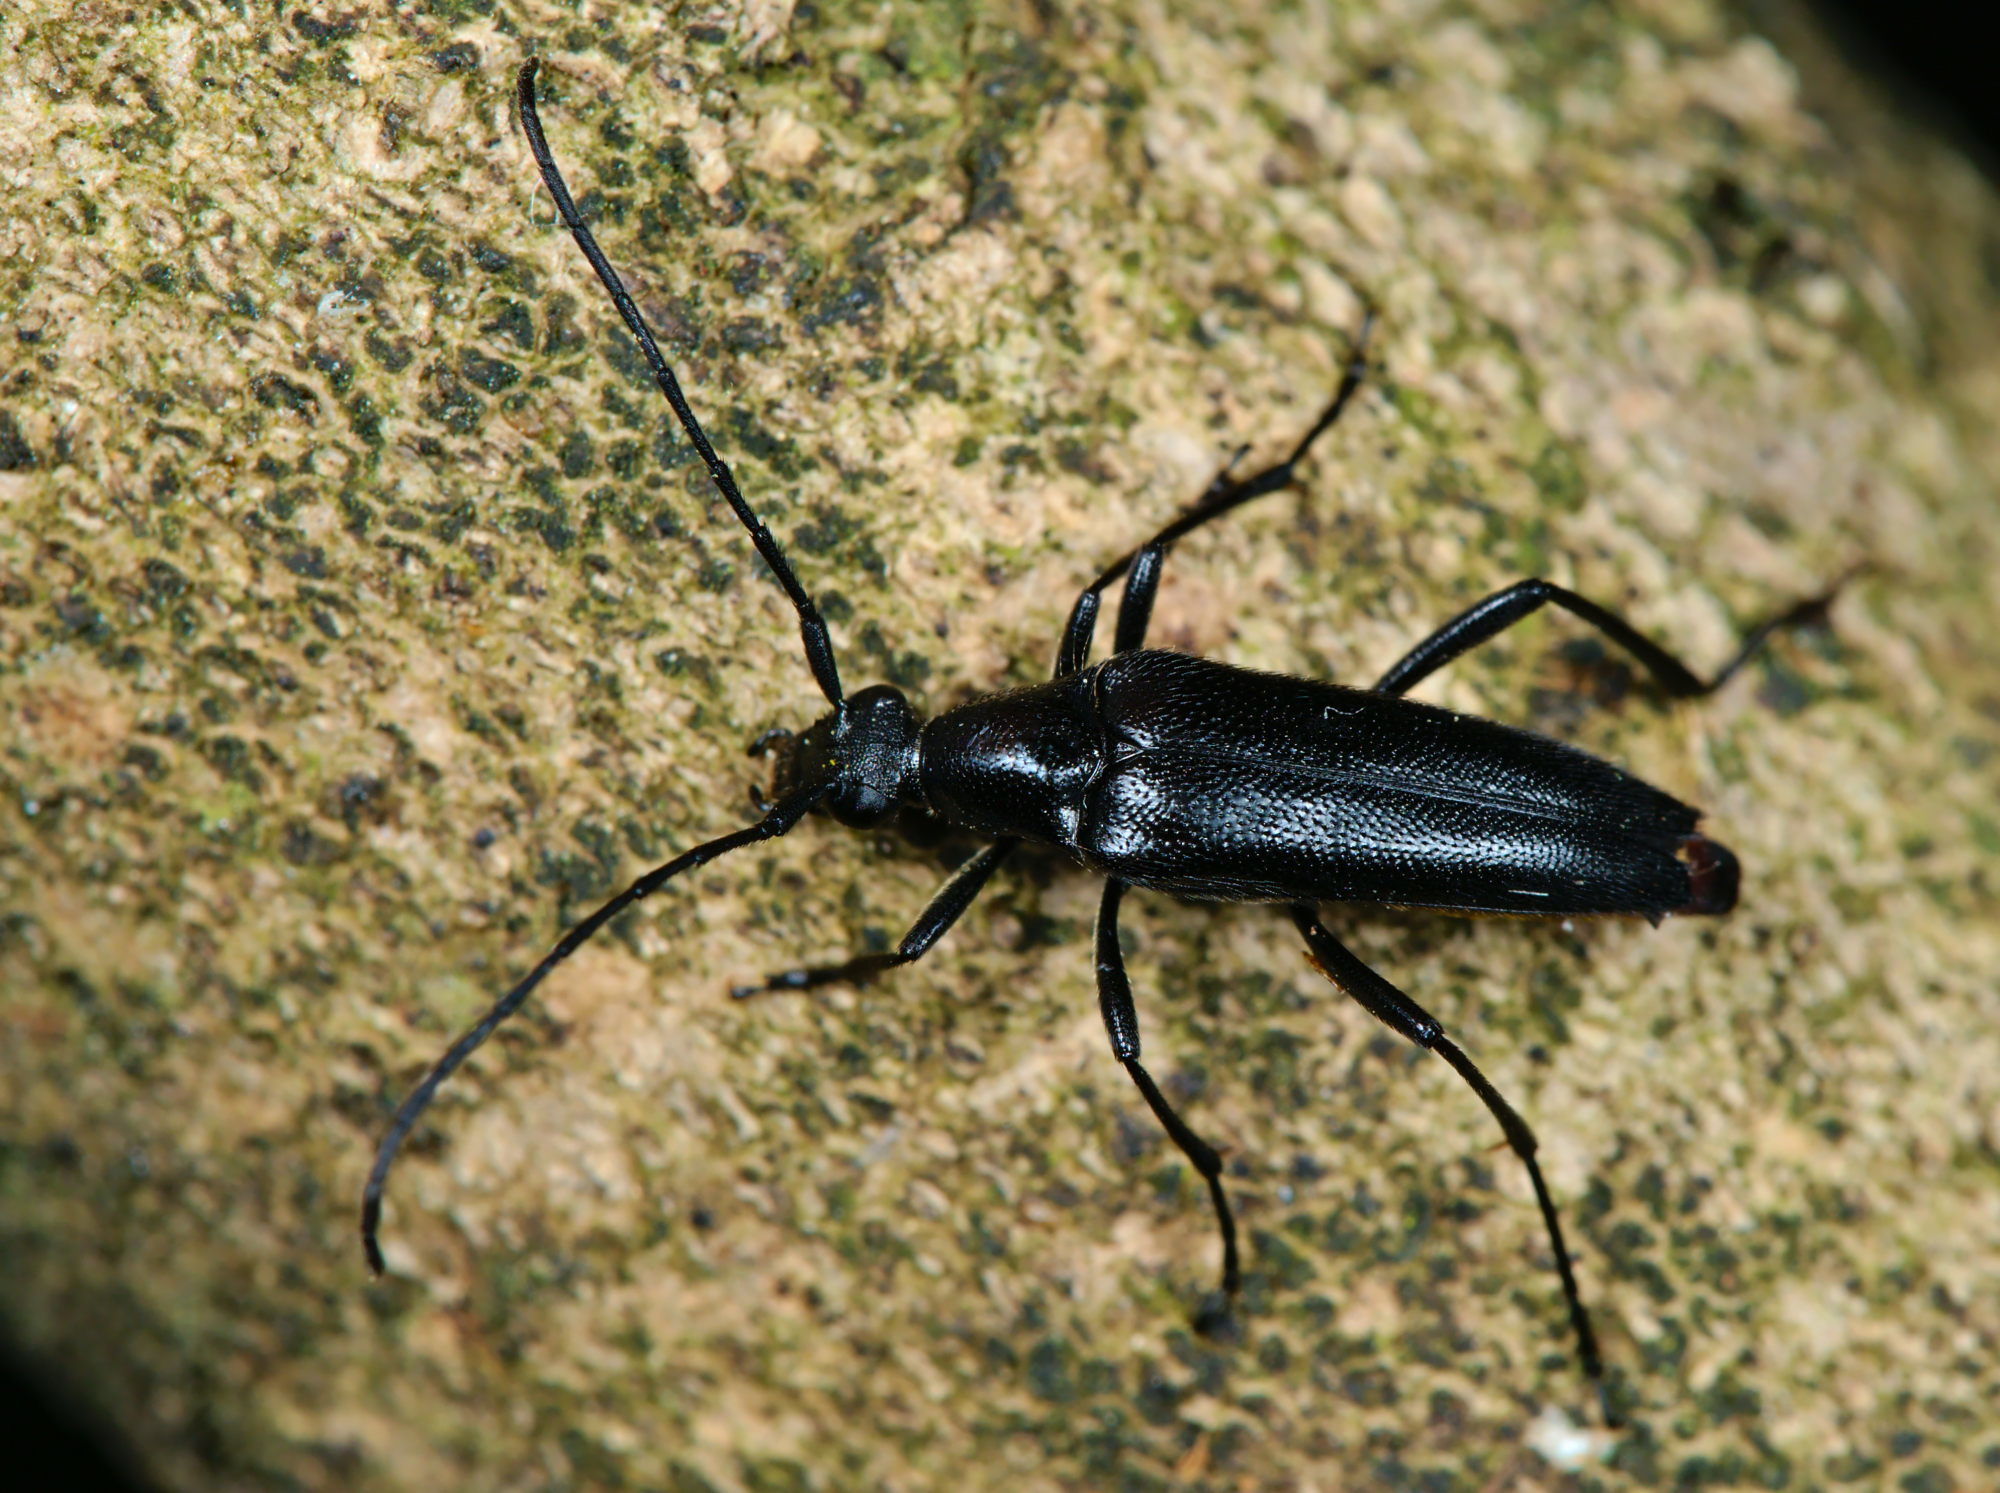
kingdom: Animalia
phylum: Arthropoda
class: Insecta
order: Coleoptera
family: Cerambycidae
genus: Stenurella
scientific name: Stenurella nigra
